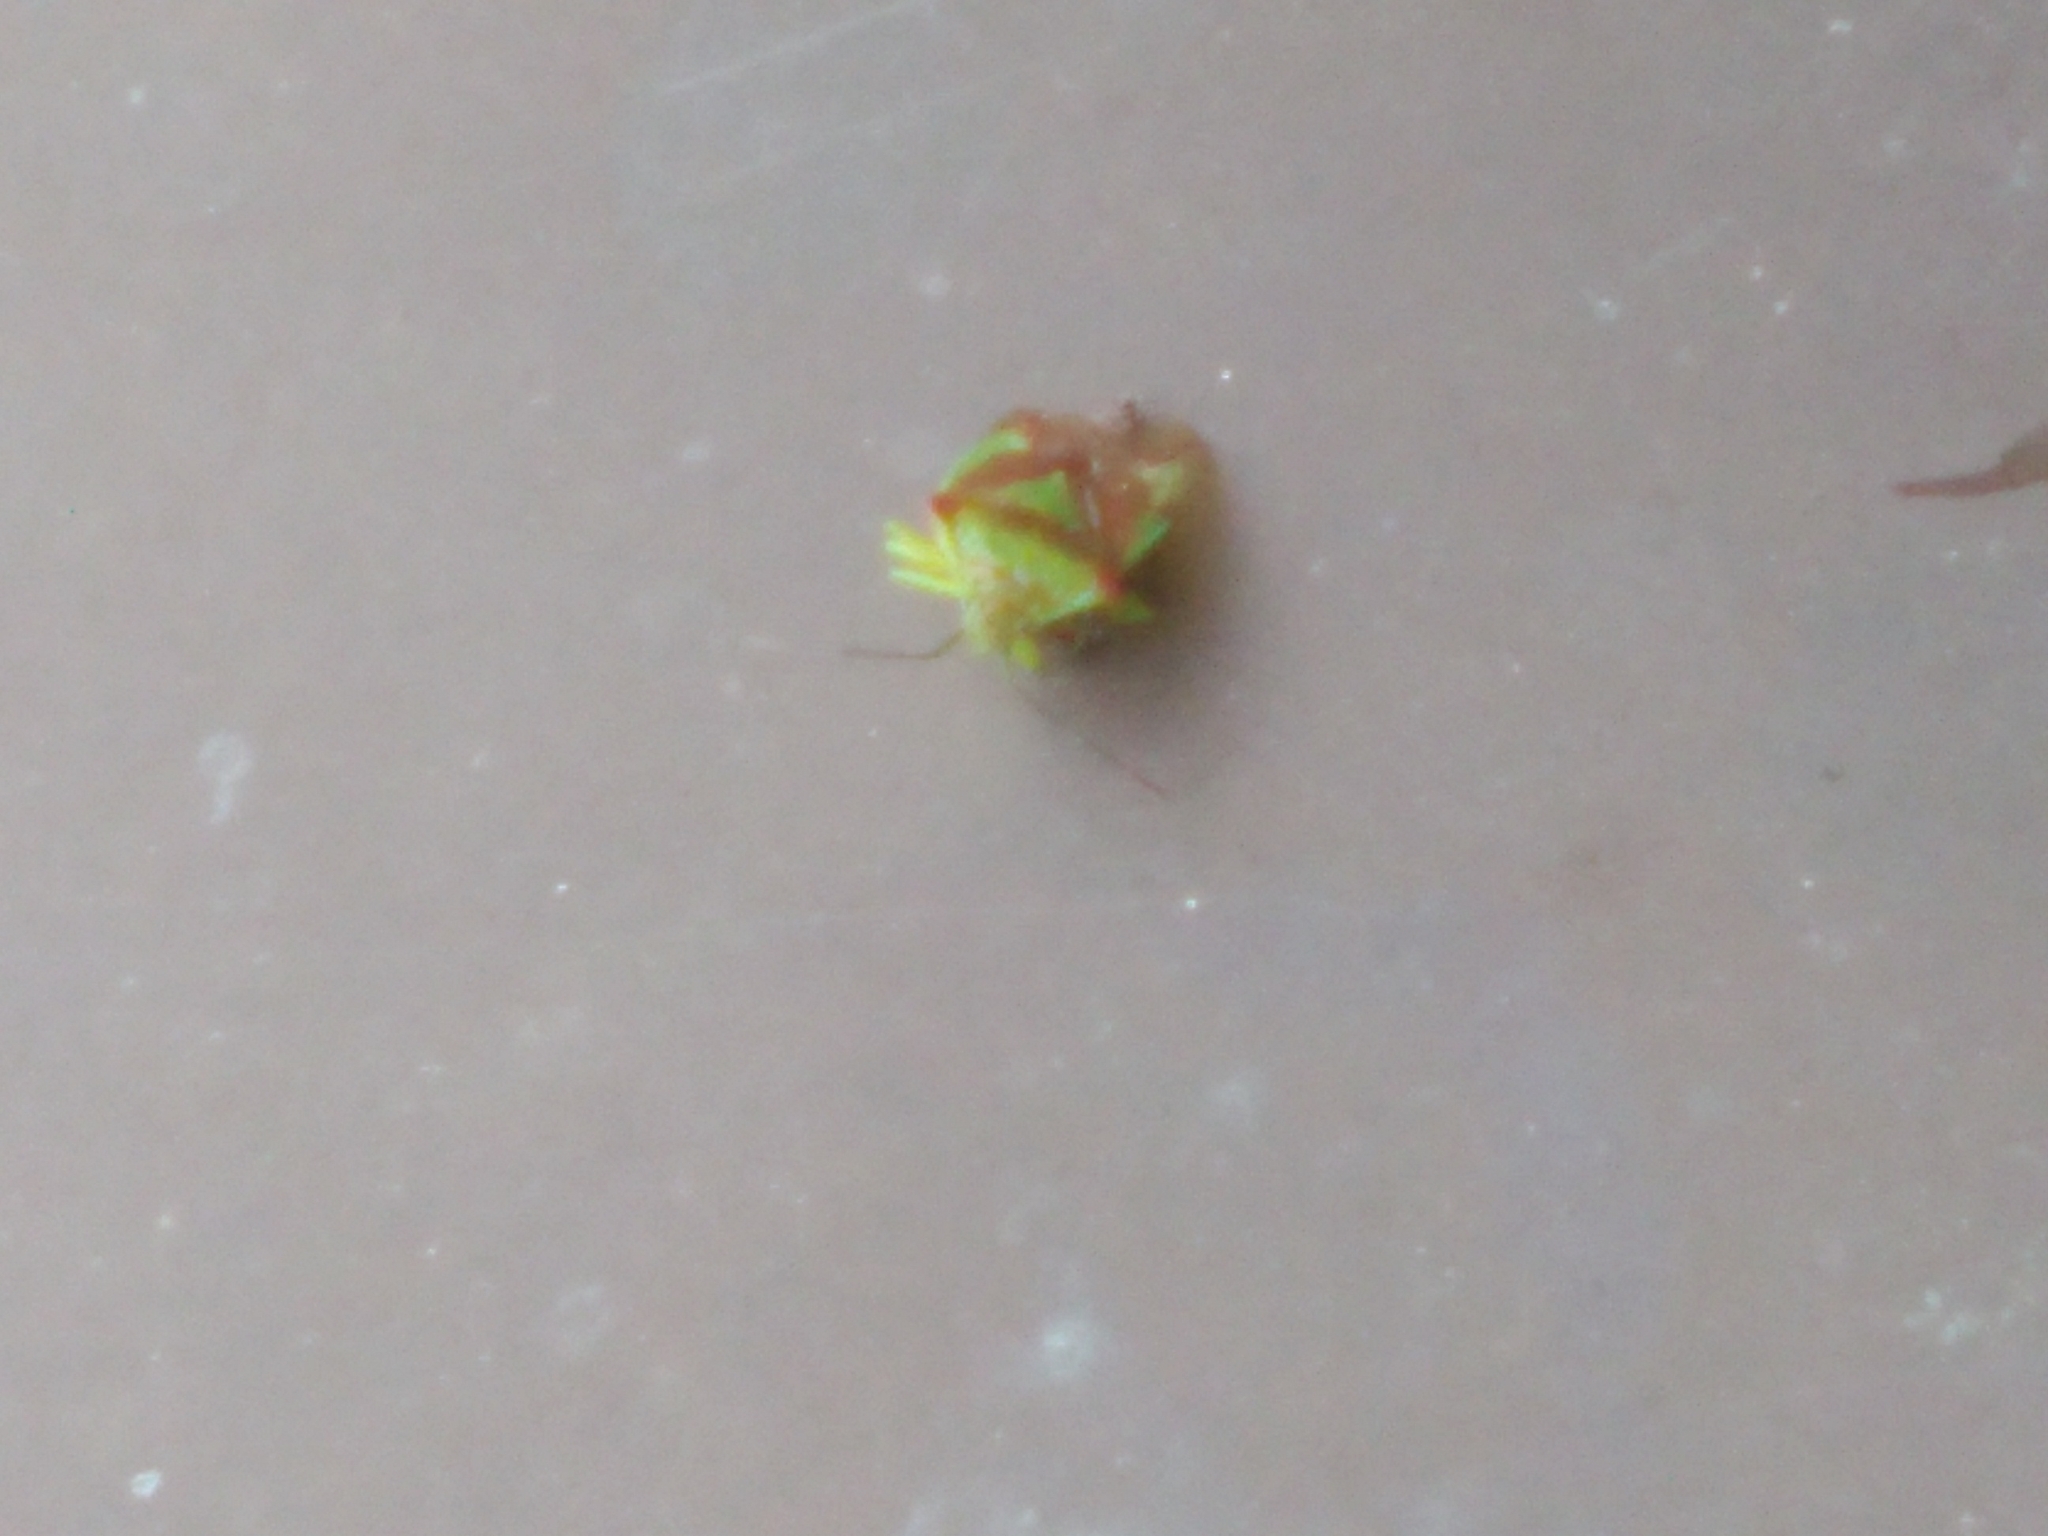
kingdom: Animalia
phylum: Arthropoda
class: Insecta
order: Hemiptera
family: Acanthosomatidae
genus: Acanthosoma
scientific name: Acanthosoma haemorrhoidale
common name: Hawthorn shieldbug
